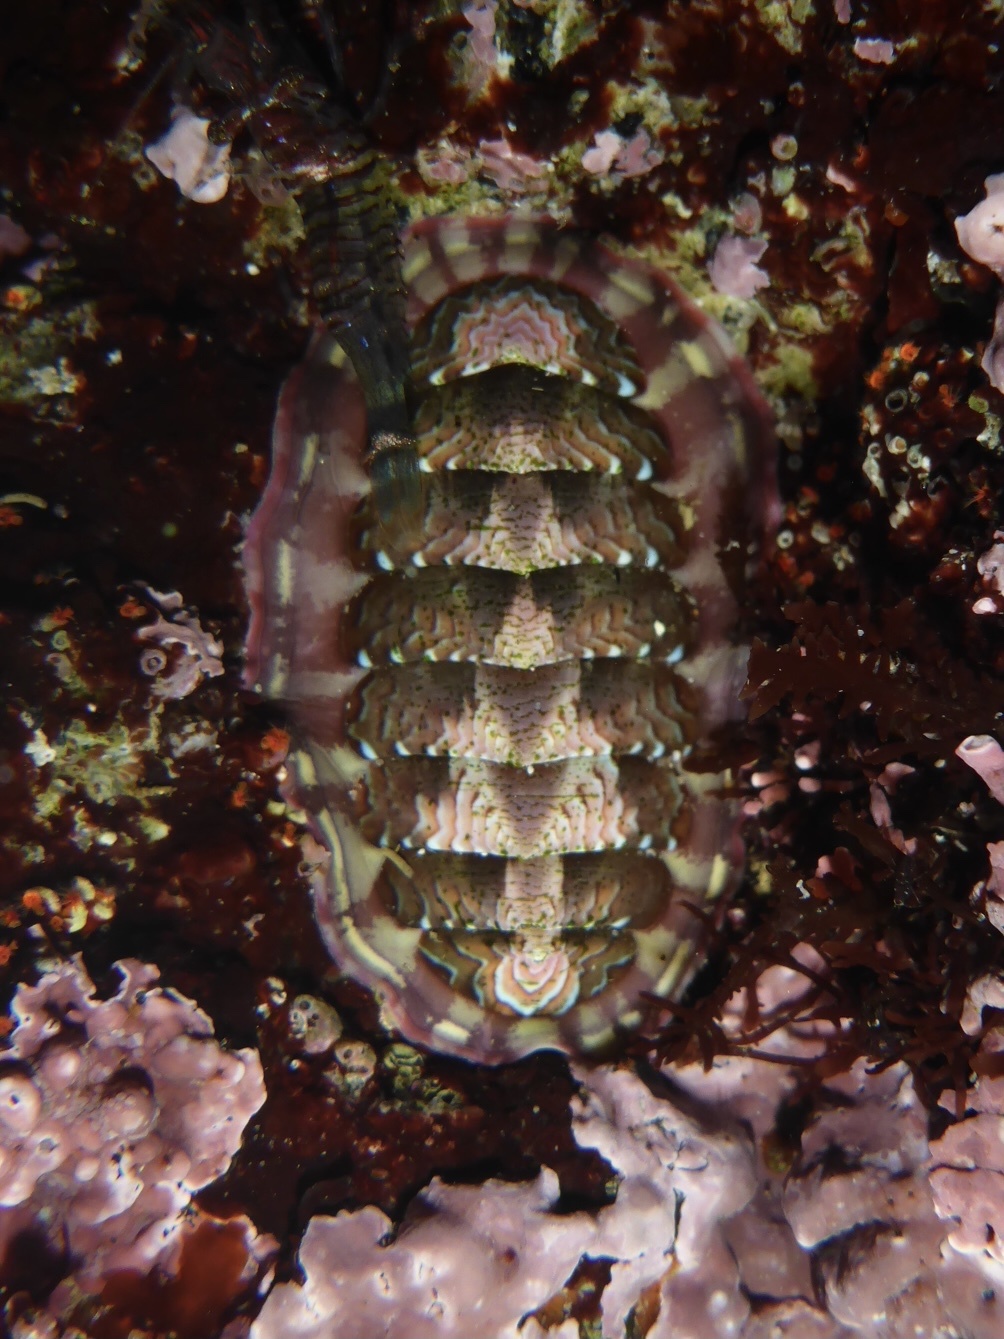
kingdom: Animalia
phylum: Mollusca
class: Polyplacophora
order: Chitonida
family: Tonicellidae
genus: Tonicella
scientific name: Tonicella lokii
